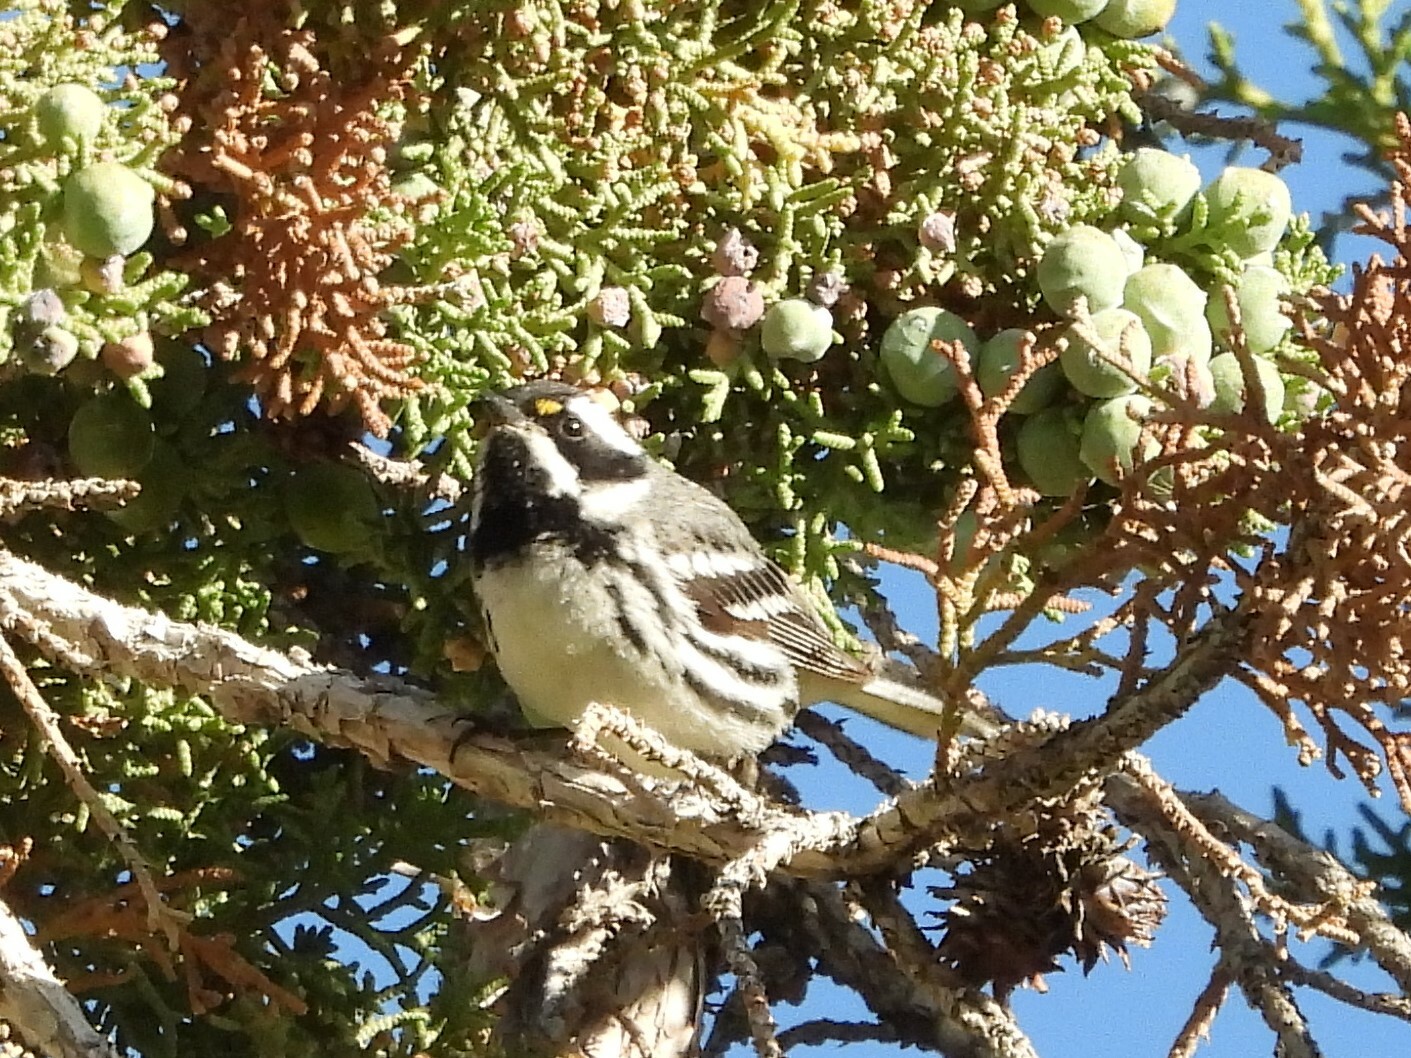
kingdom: Animalia
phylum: Chordata
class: Aves
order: Passeriformes
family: Parulidae
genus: Setophaga
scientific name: Setophaga nigrescens
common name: Black-throated gray warbler
